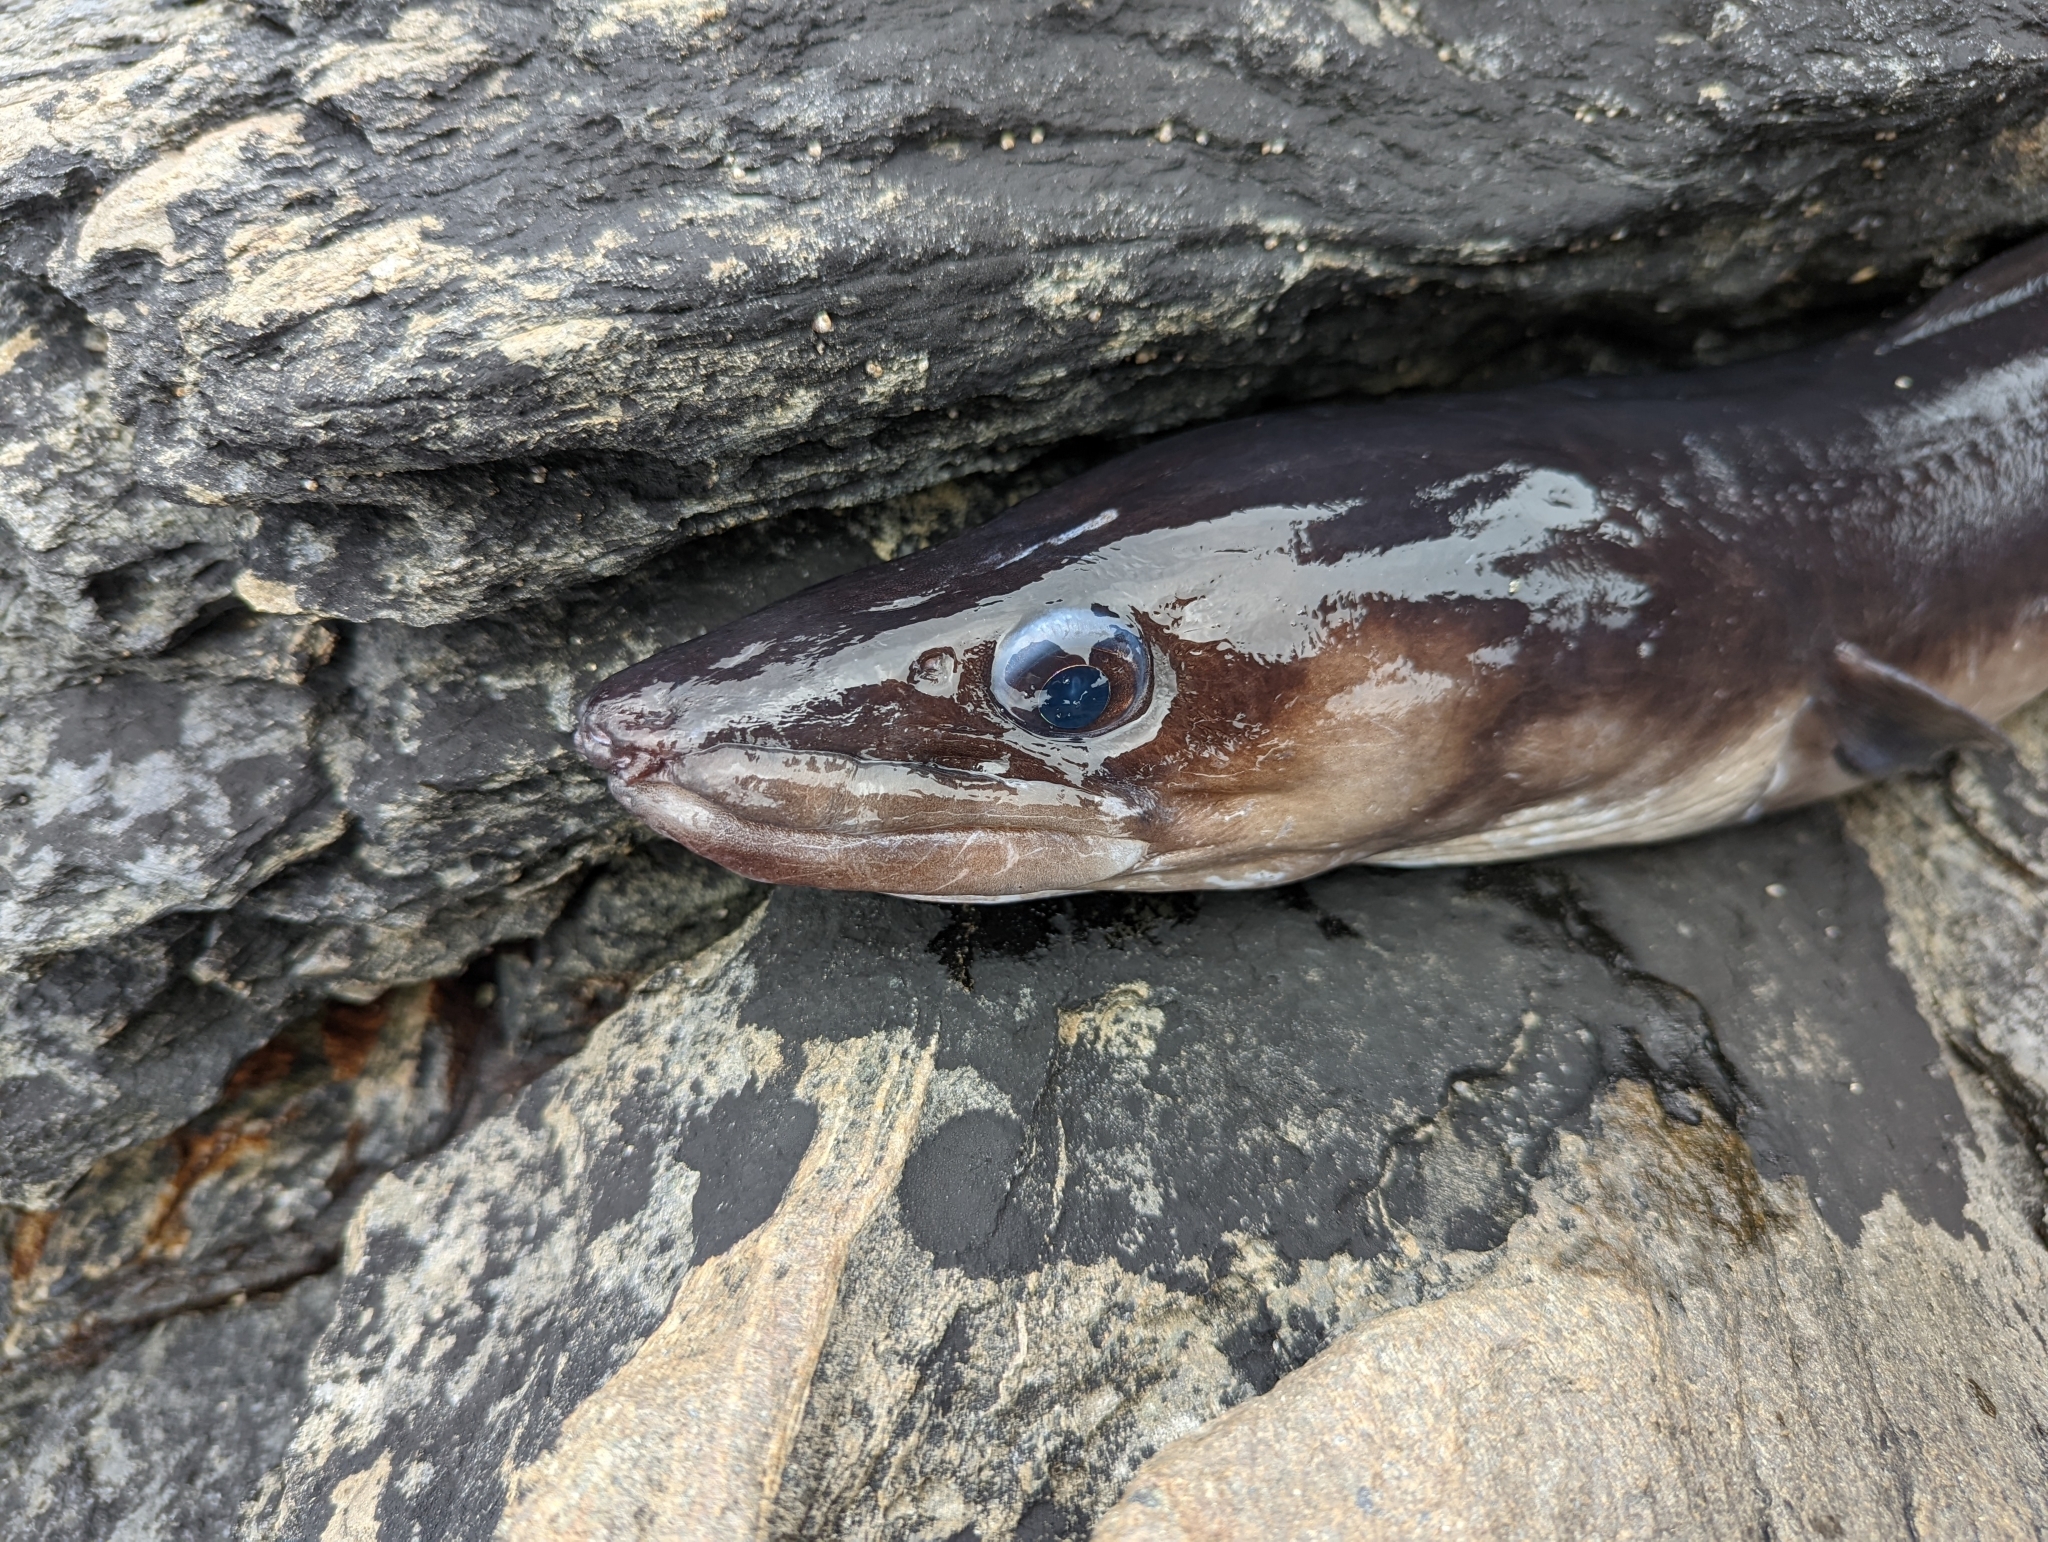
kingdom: Animalia
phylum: Chordata
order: Anguilliformes
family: Congridae
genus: Conger
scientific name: Conger conger
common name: Conger eel
